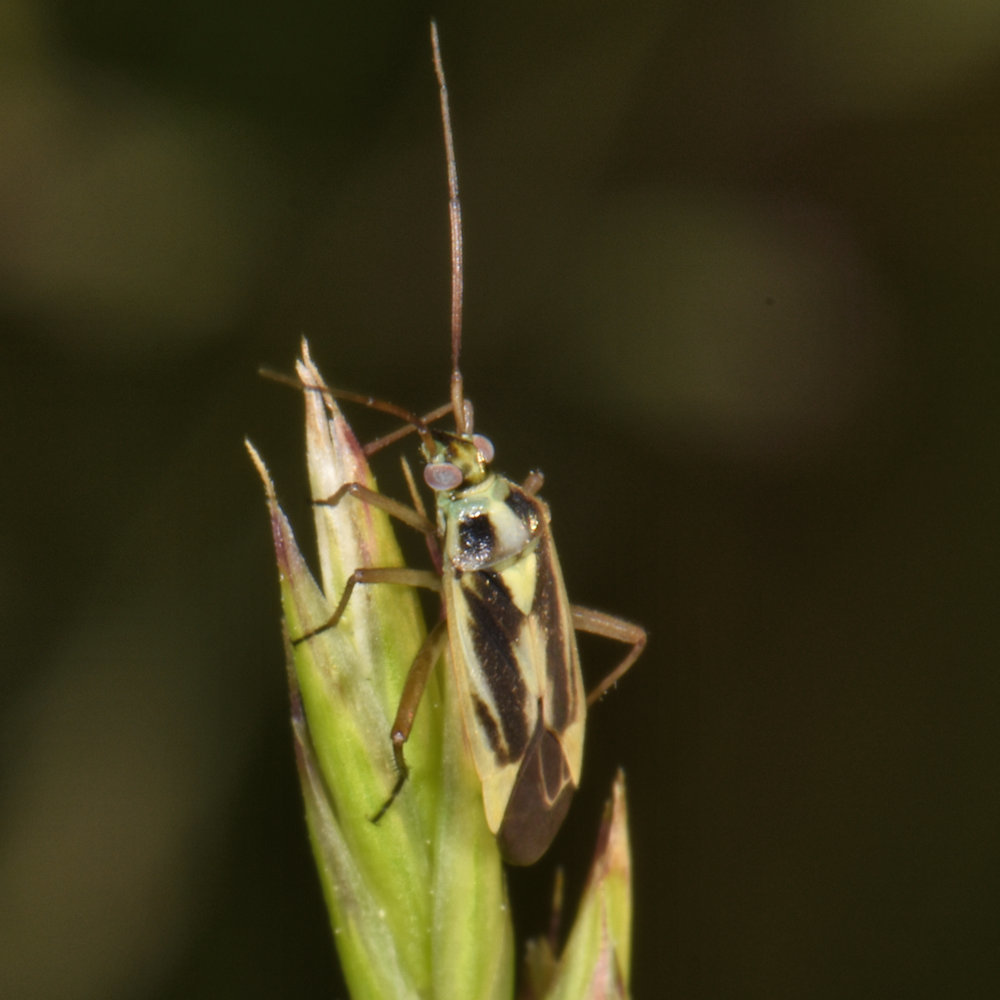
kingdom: Animalia
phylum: Arthropoda
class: Insecta
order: Hemiptera
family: Miridae
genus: Stenotus
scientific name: Stenotus binotatus
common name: Plant bug
